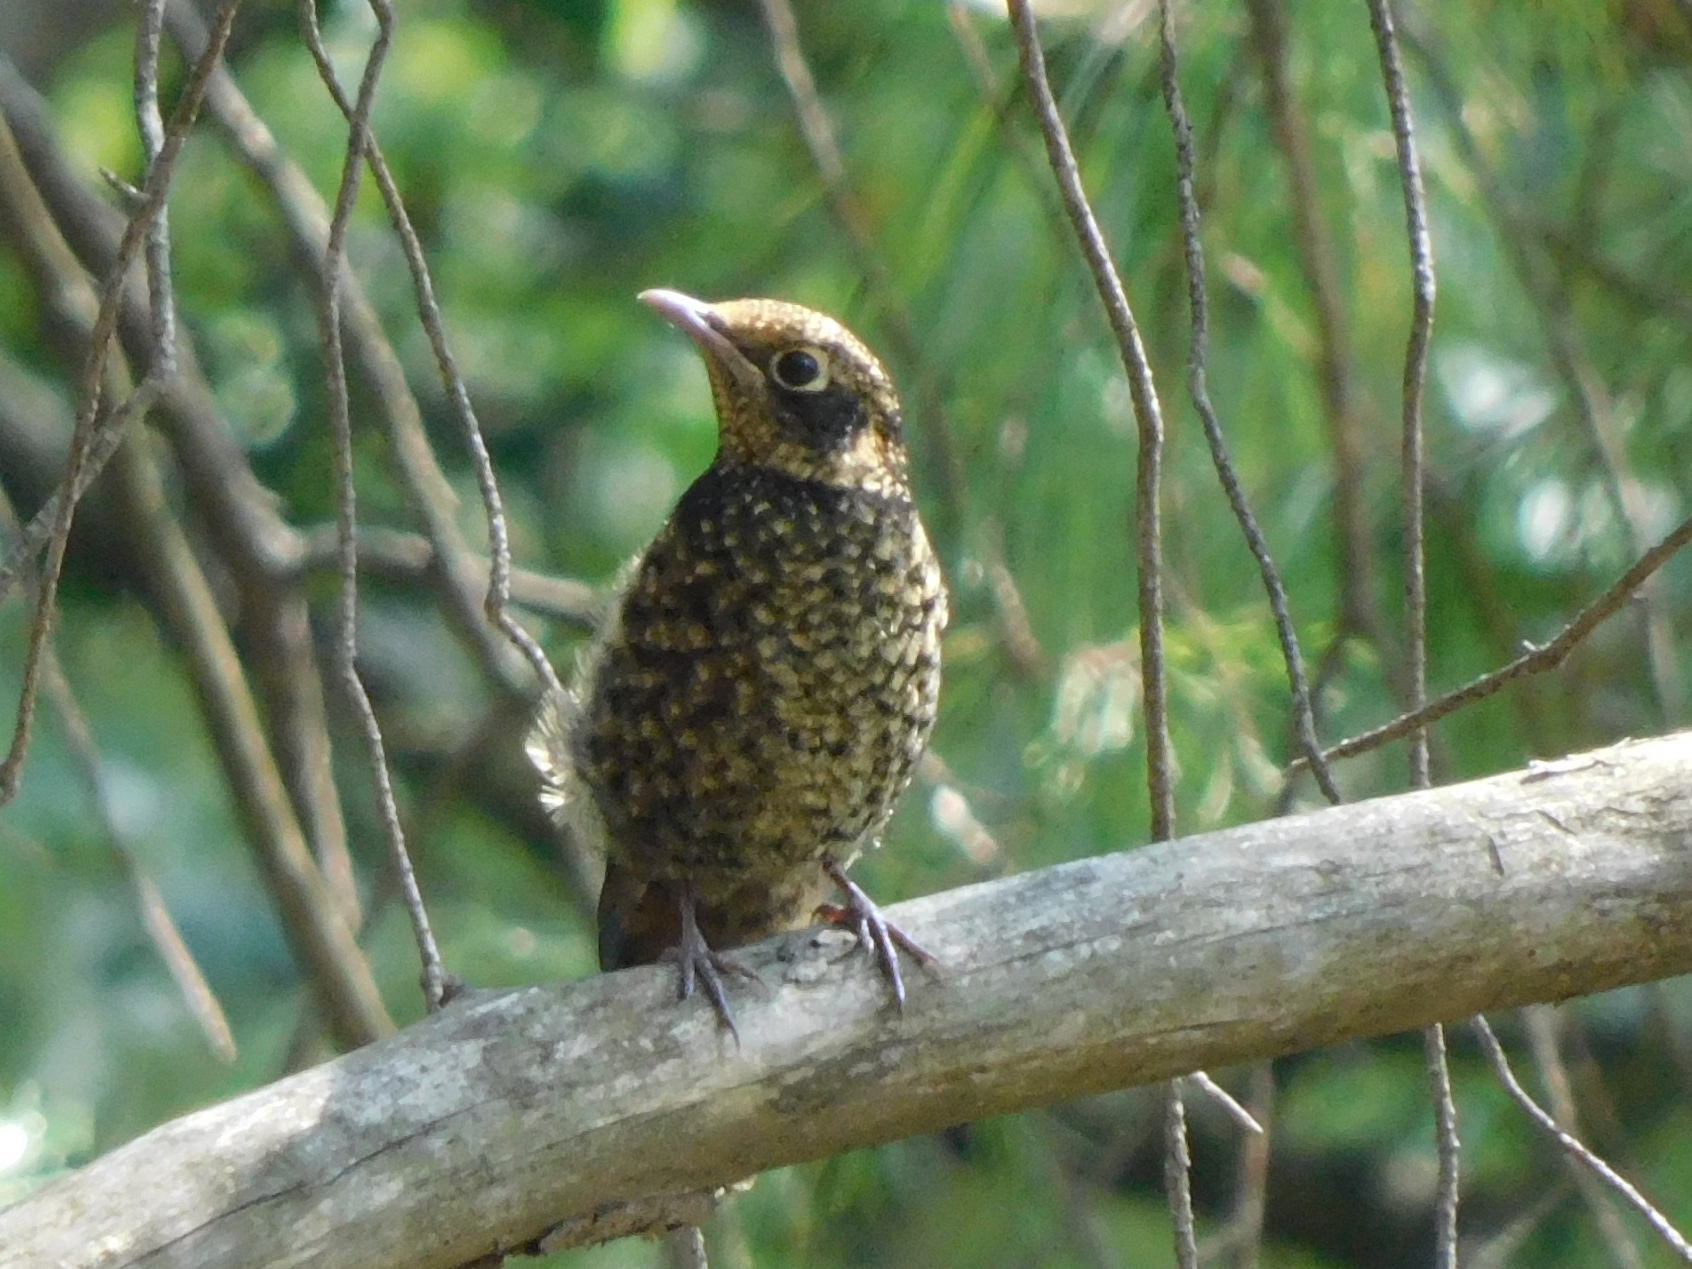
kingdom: Animalia
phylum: Chordata
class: Aves
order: Passeriformes
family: Muscicapidae
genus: Monticola
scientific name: Monticola rufiventris
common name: Chestnut-bellied rock thrush
